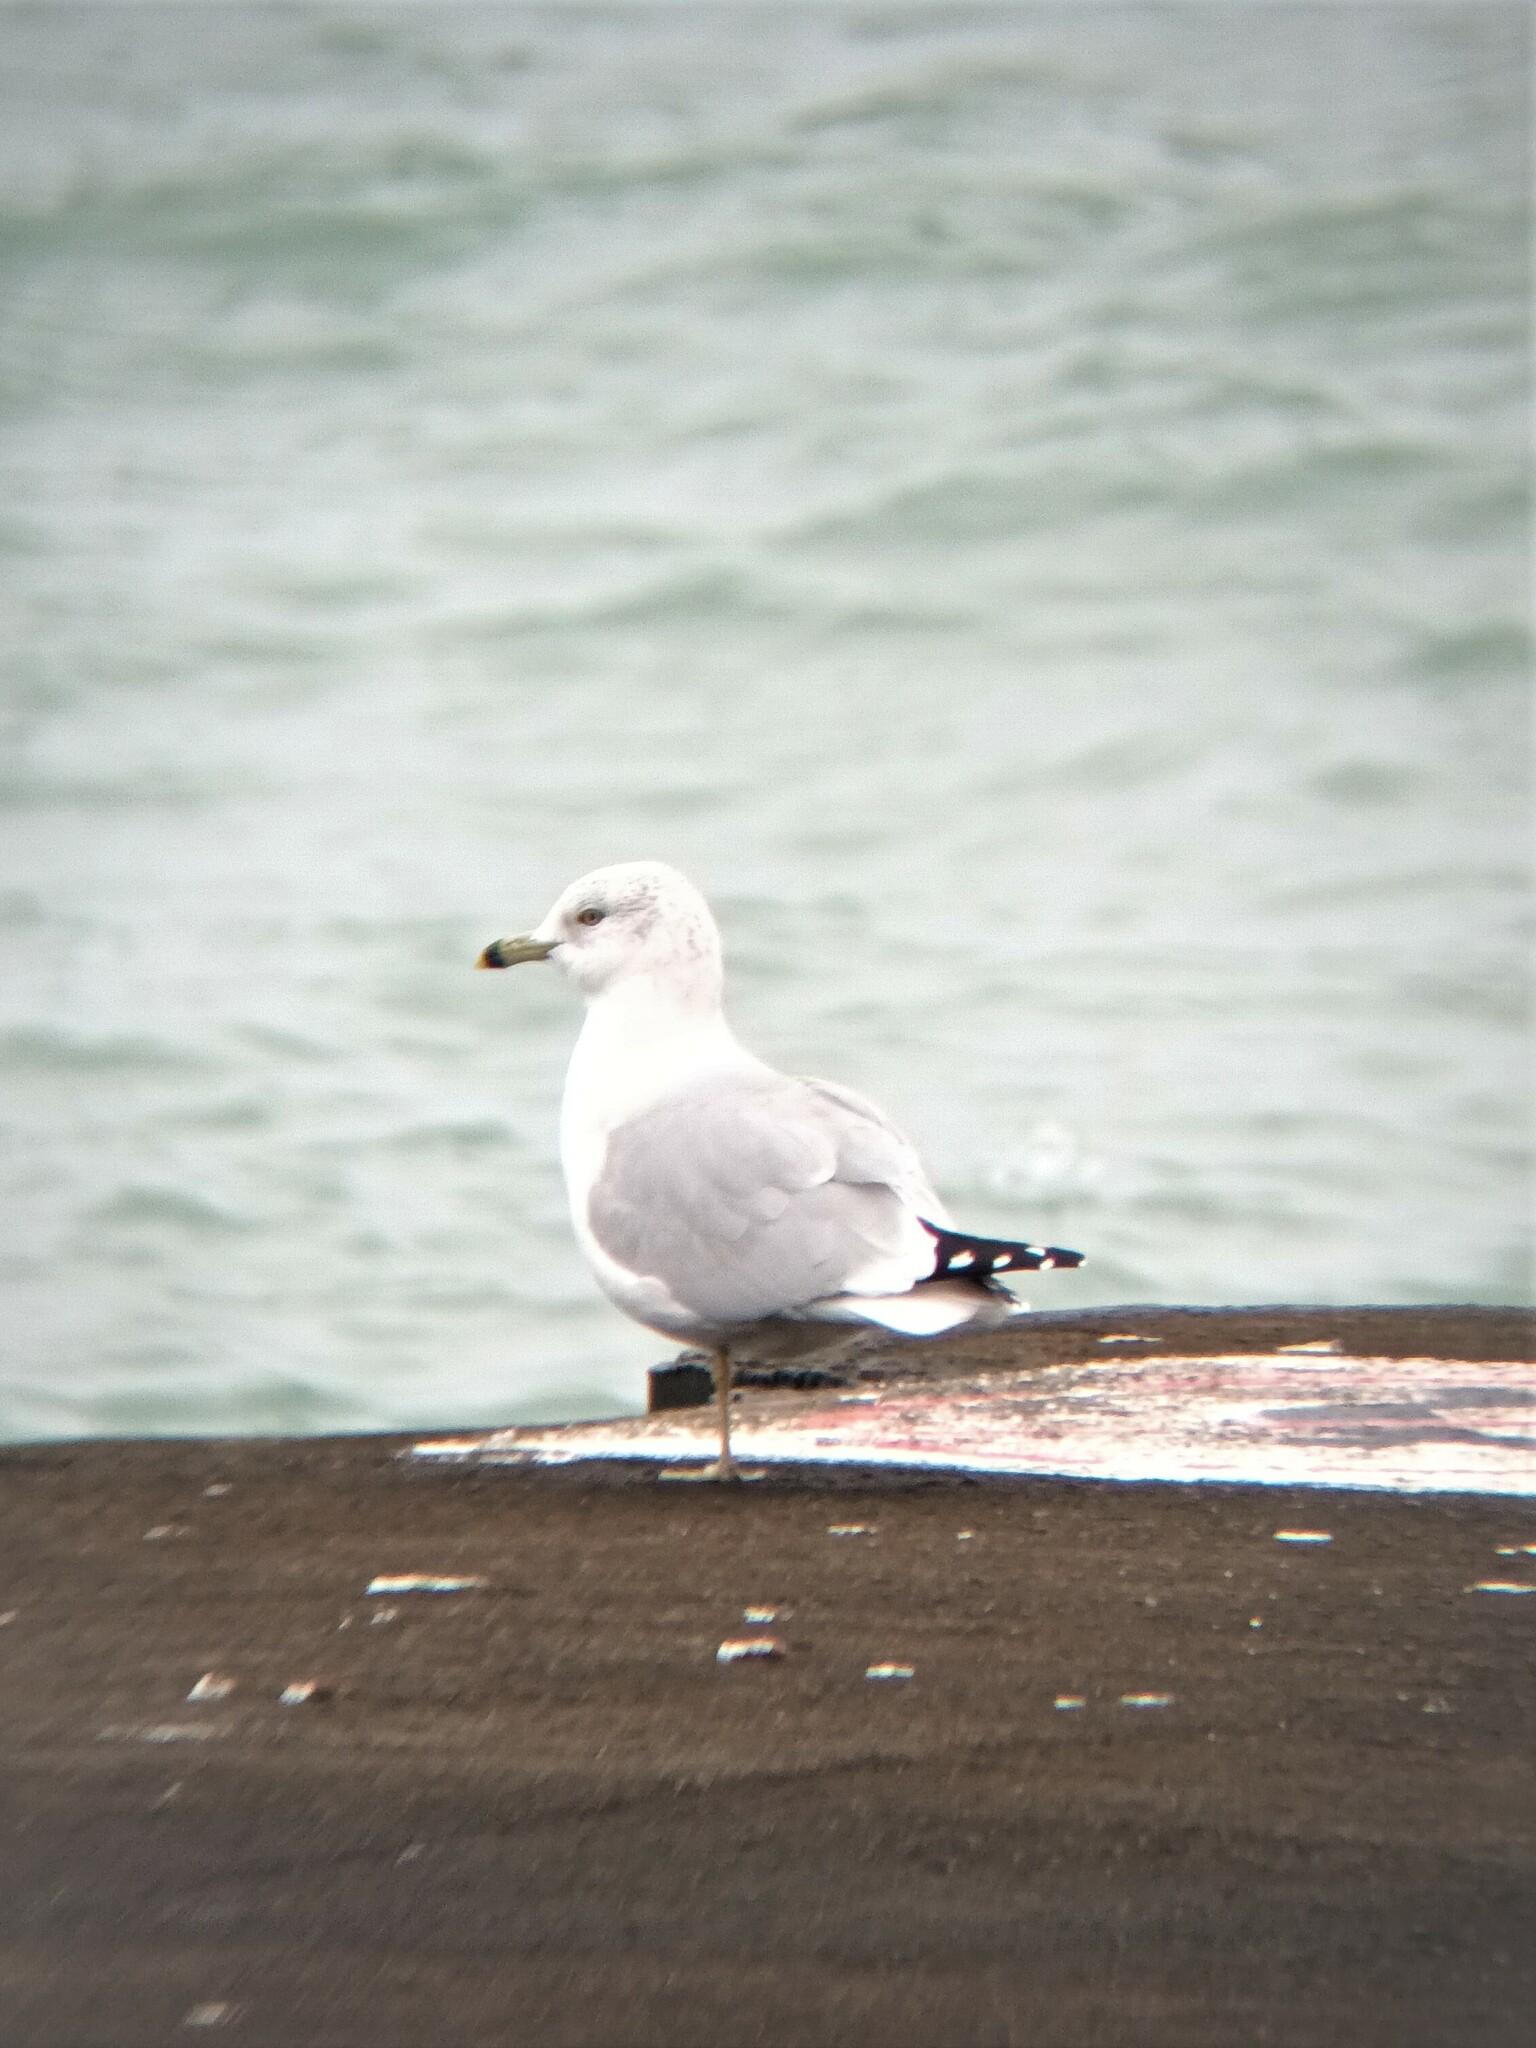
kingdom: Animalia
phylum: Chordata
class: Aves
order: Charadriiformes
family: Laridae
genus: Larus
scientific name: Larus delawarensis
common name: Ring-billed gull
